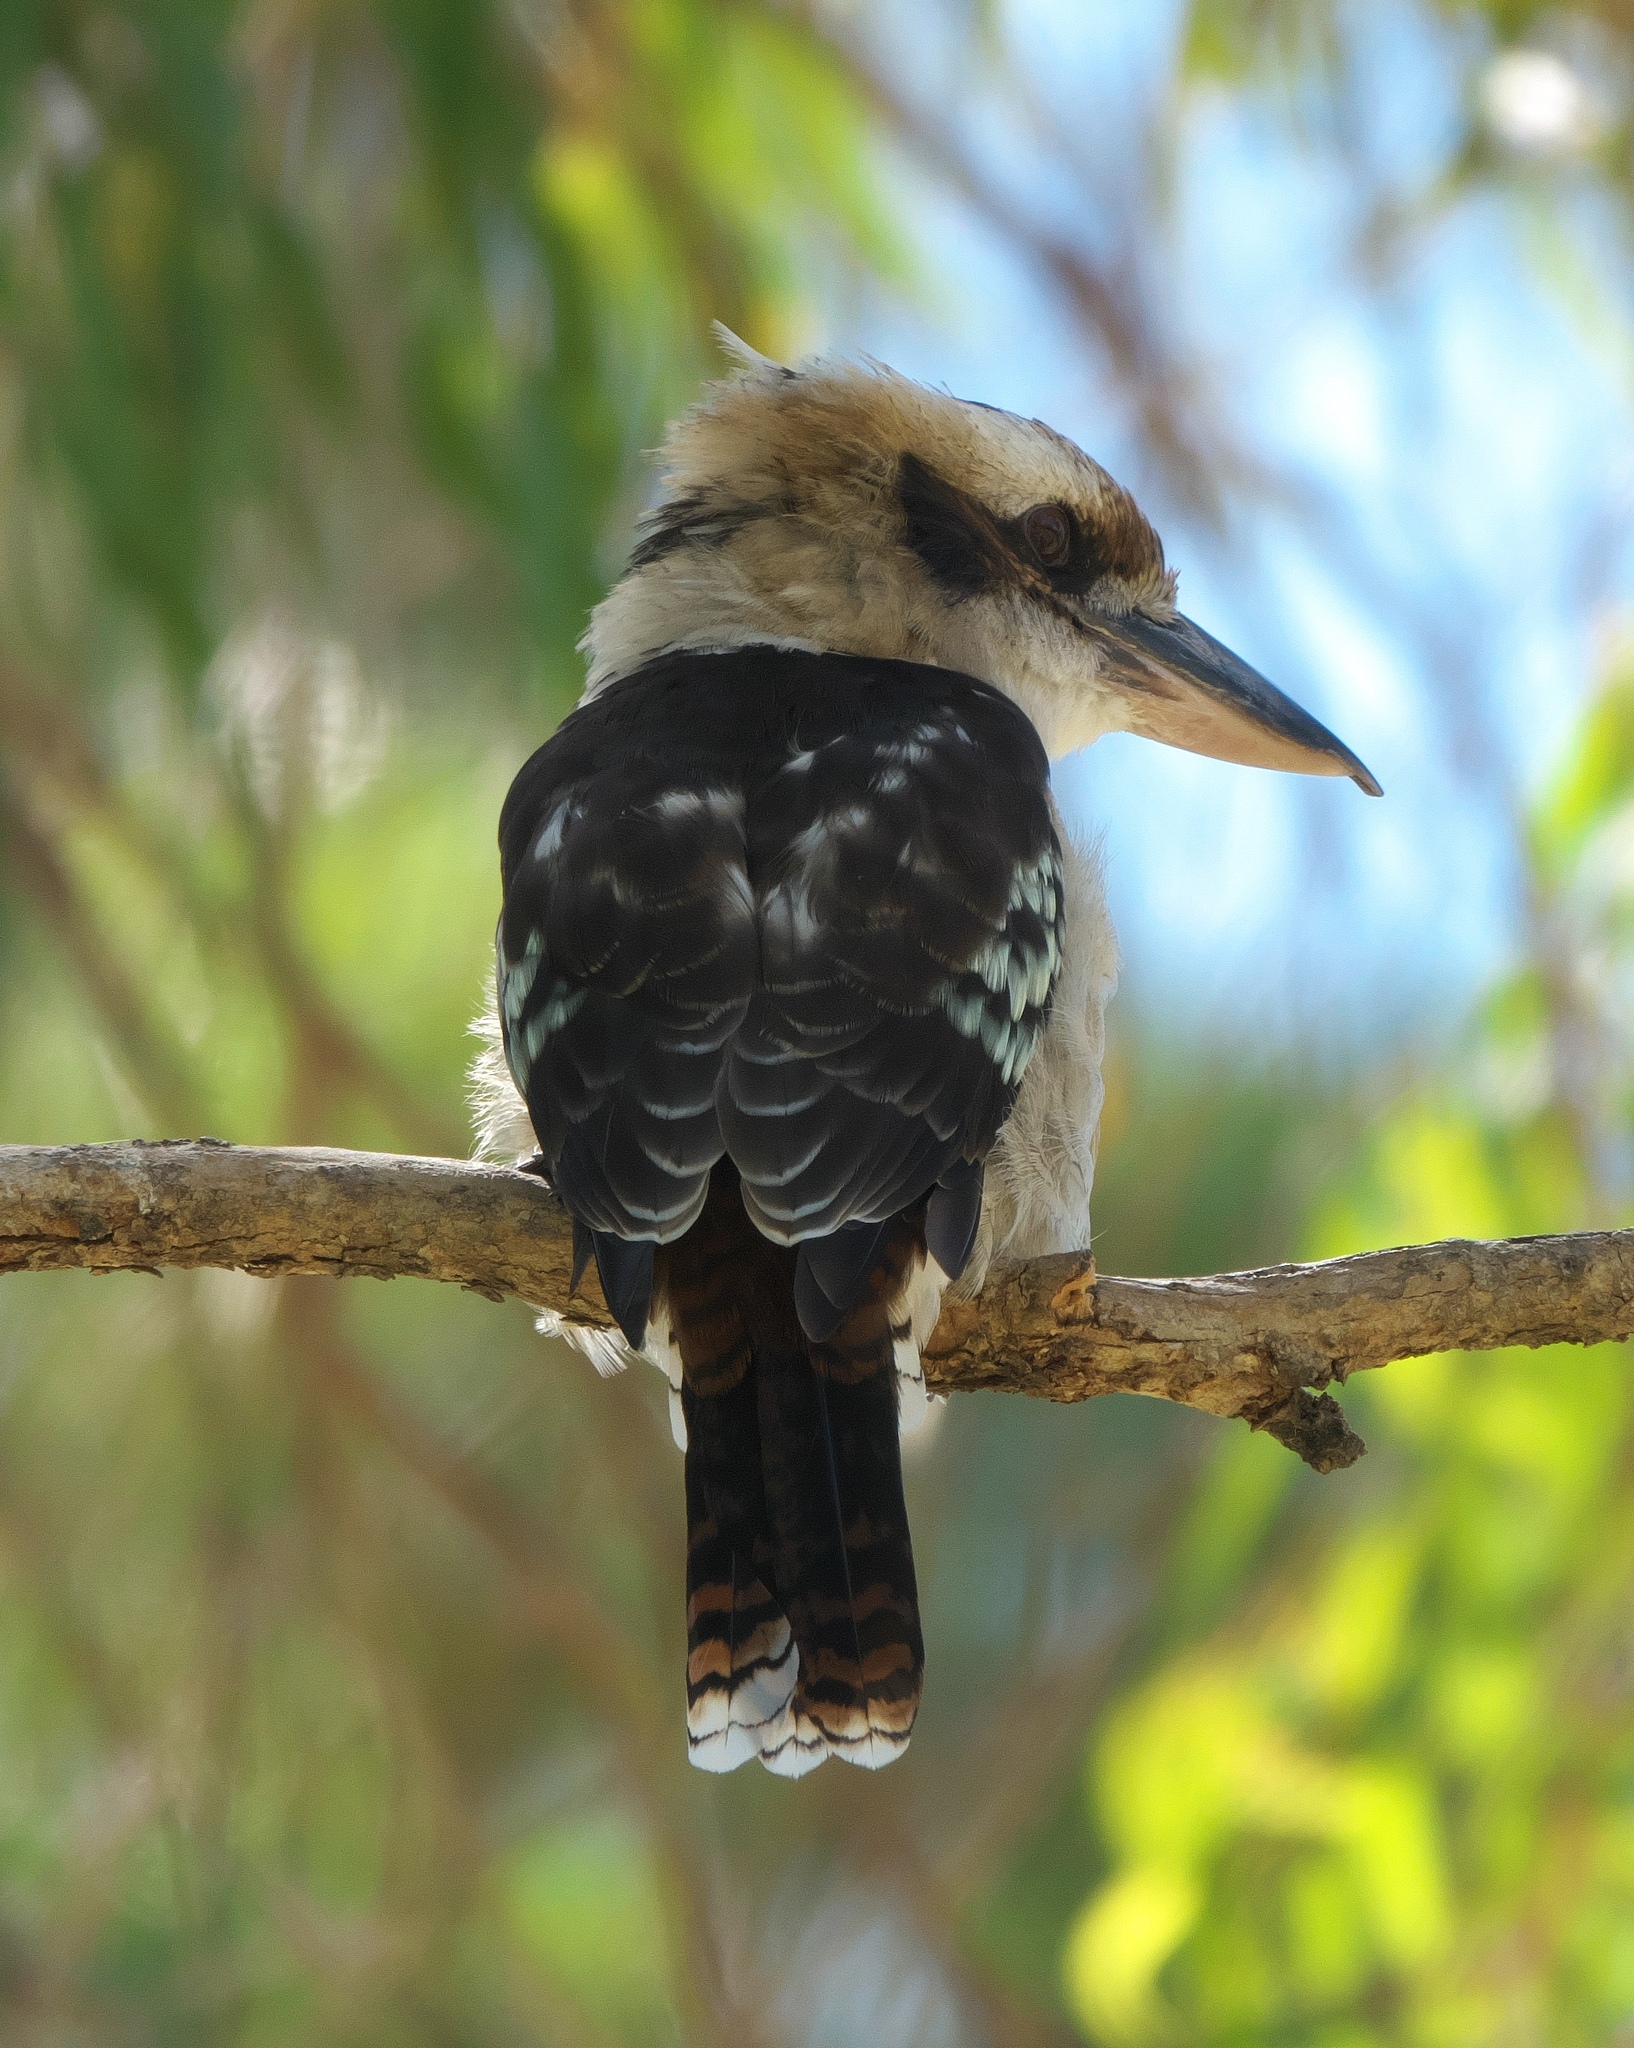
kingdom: Animalia
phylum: Chordata
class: Aves
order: Coraciiformes
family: Alcedinidae
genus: Dacelo
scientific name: Dacelo novaeguineae
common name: Laughing kookaburra
